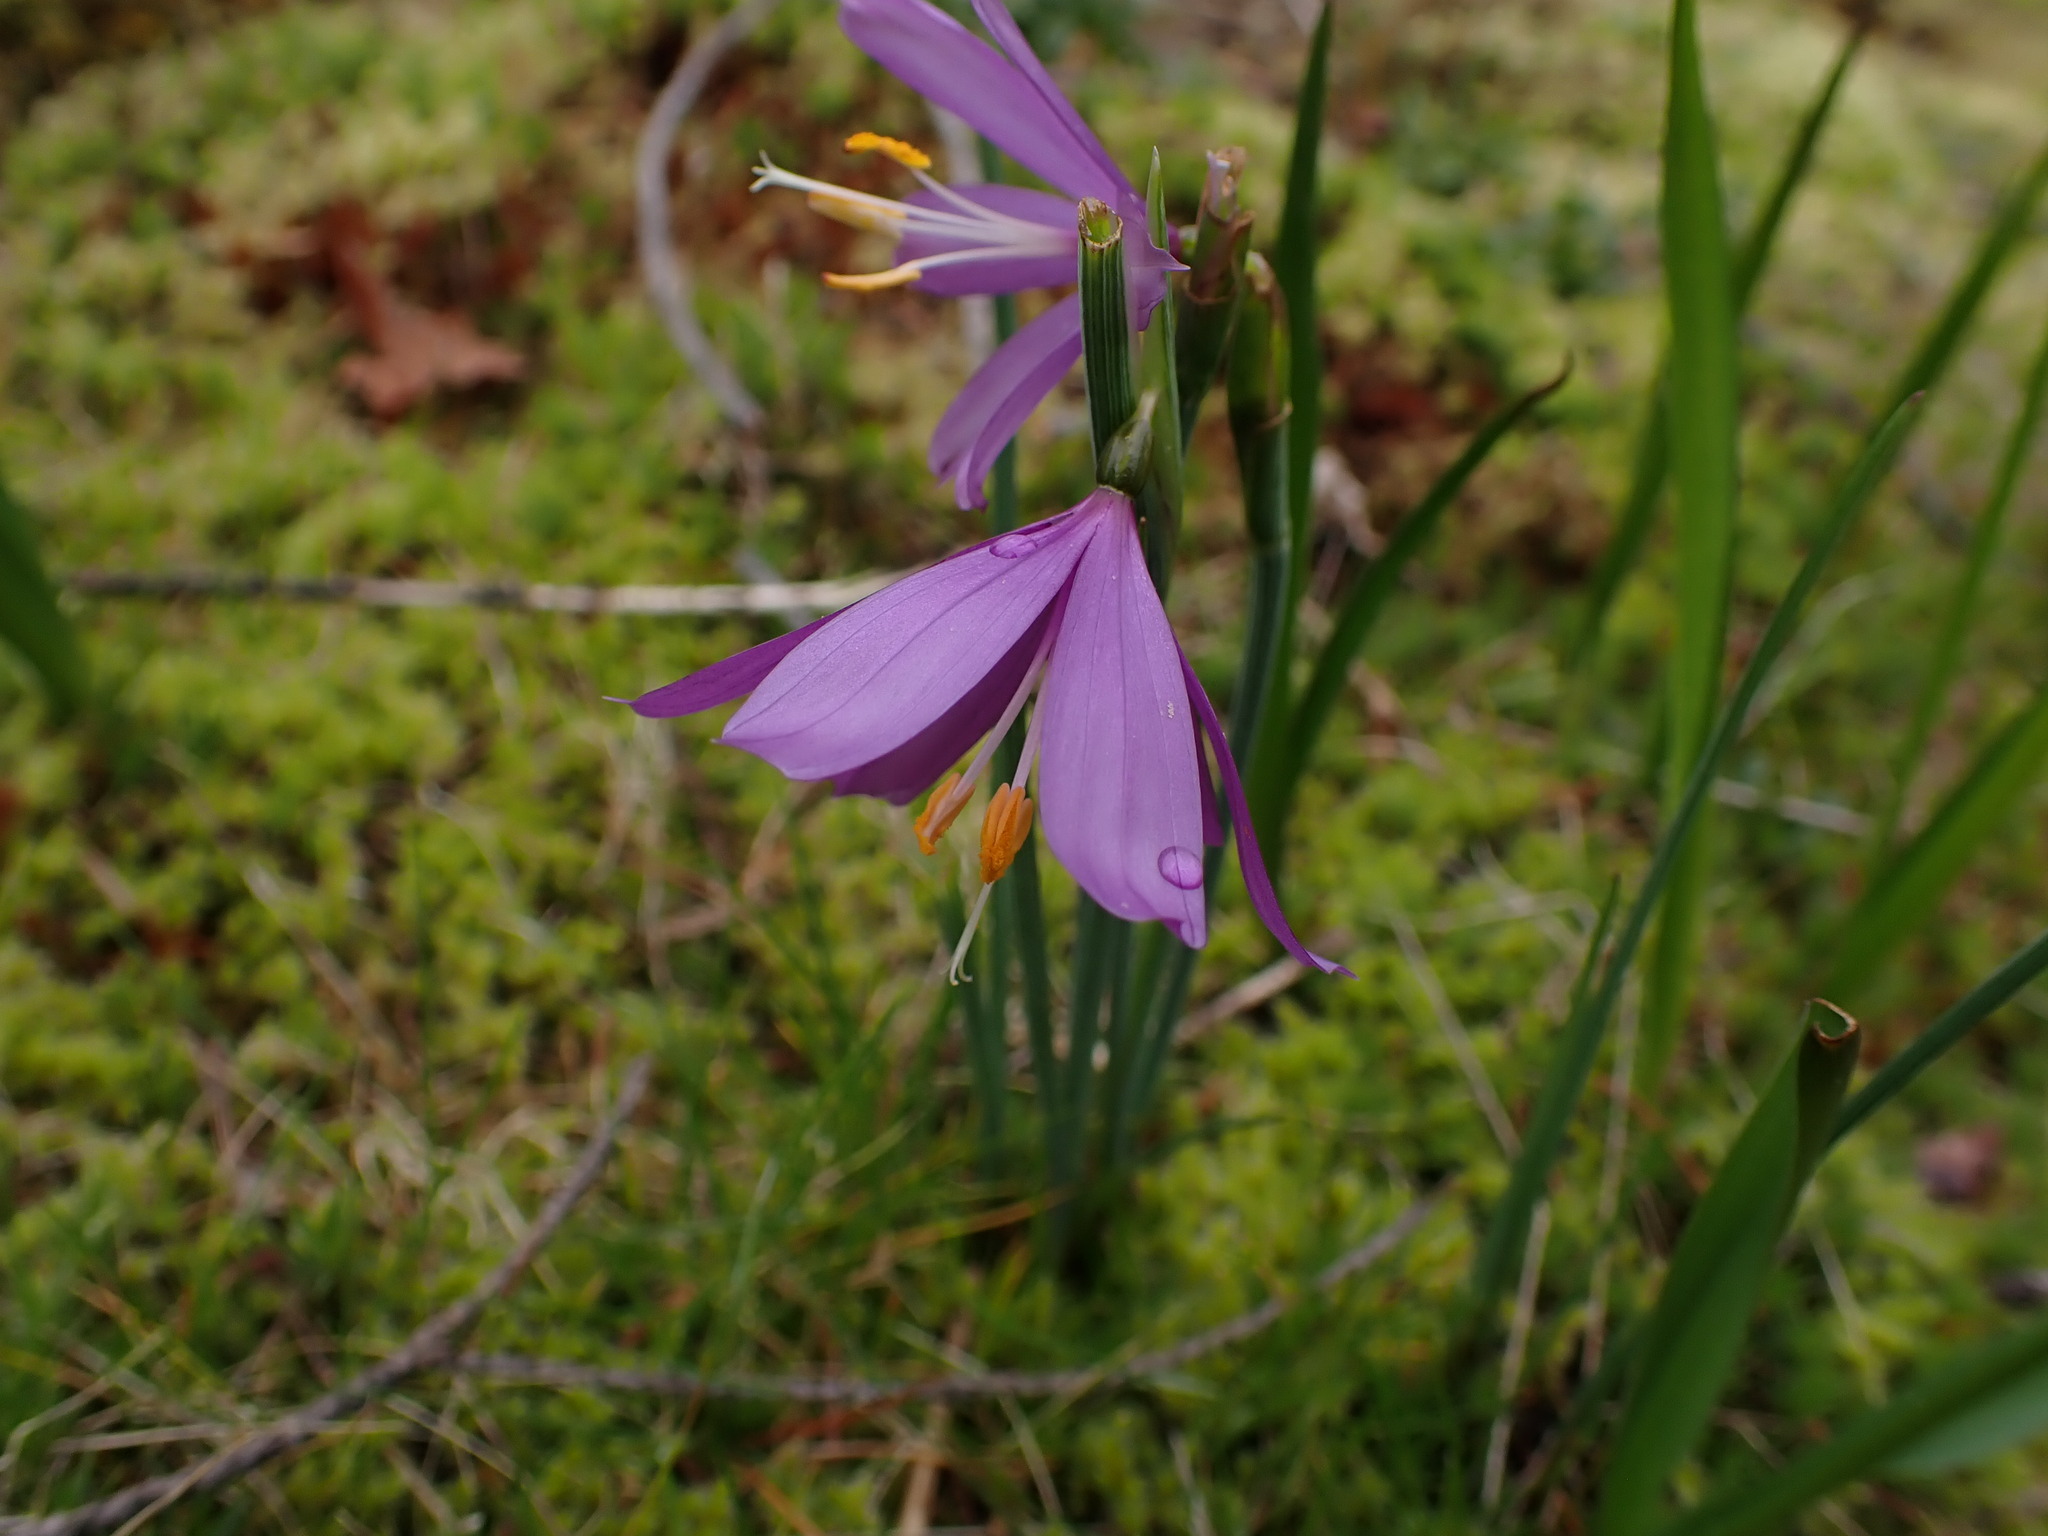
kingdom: Plantae
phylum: Tracheophyta
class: Liliopsida
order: Asparagales
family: Iridaceae
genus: Olsynium
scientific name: Olsynium douglasii
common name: Douglas' grasswidow
